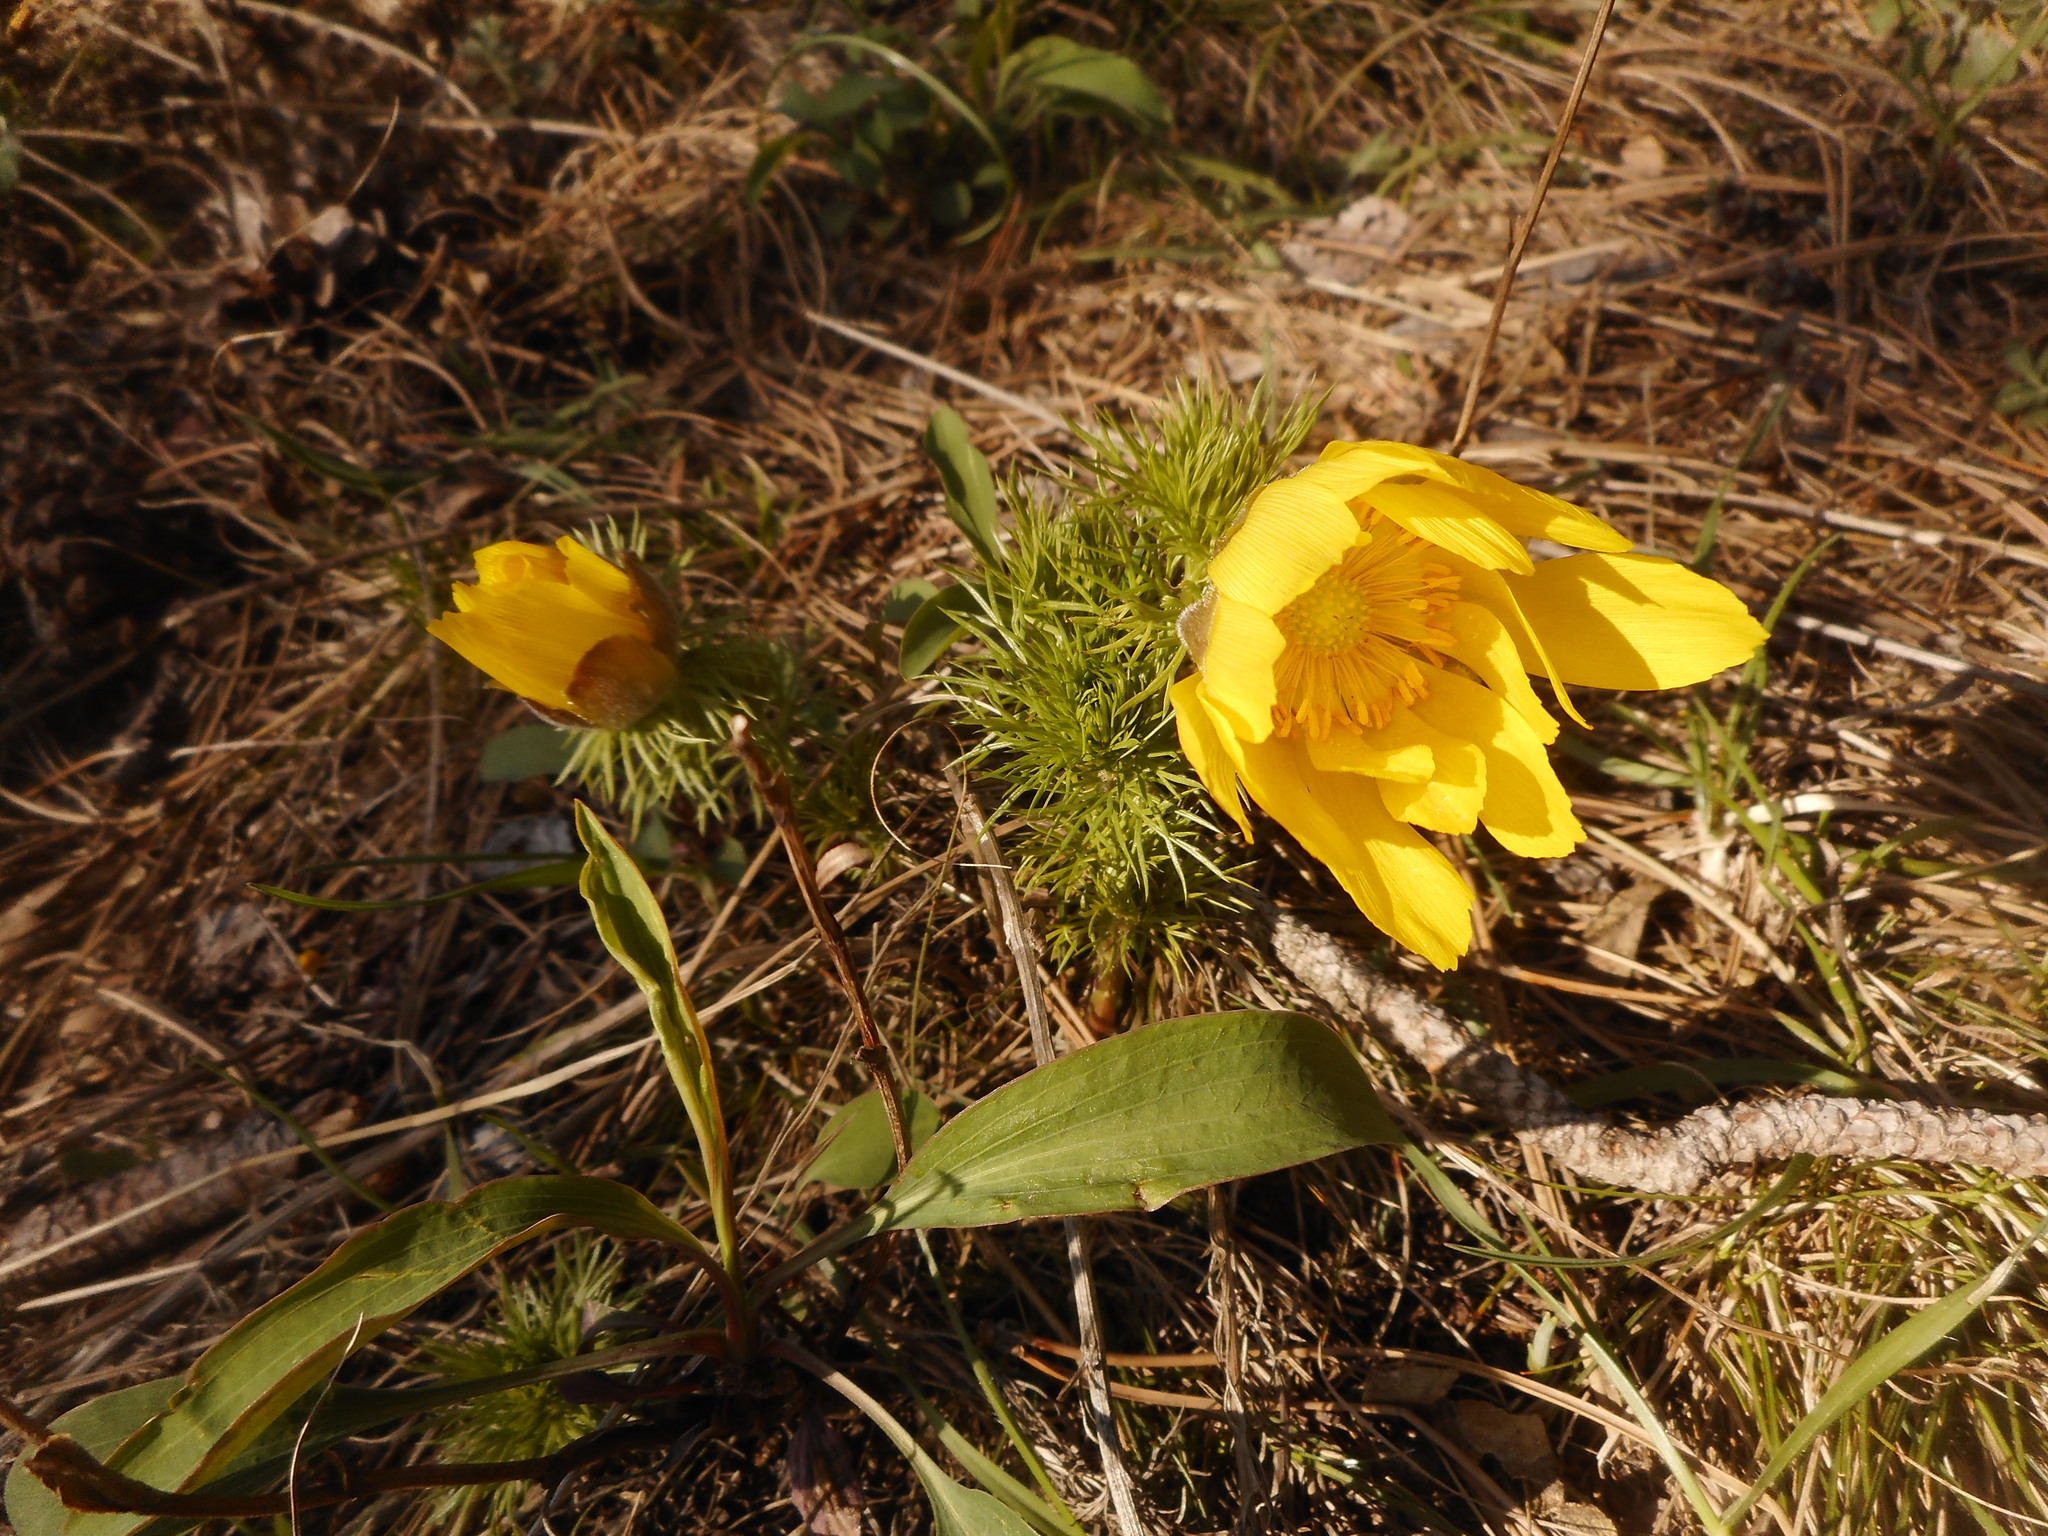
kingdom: Plantae
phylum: Tracheophyta
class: Magnoliopsida
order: Ranunculales
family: Ranunculaceae
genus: Adonis
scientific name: Adonis vernalis
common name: Yellow pheasants-eye
